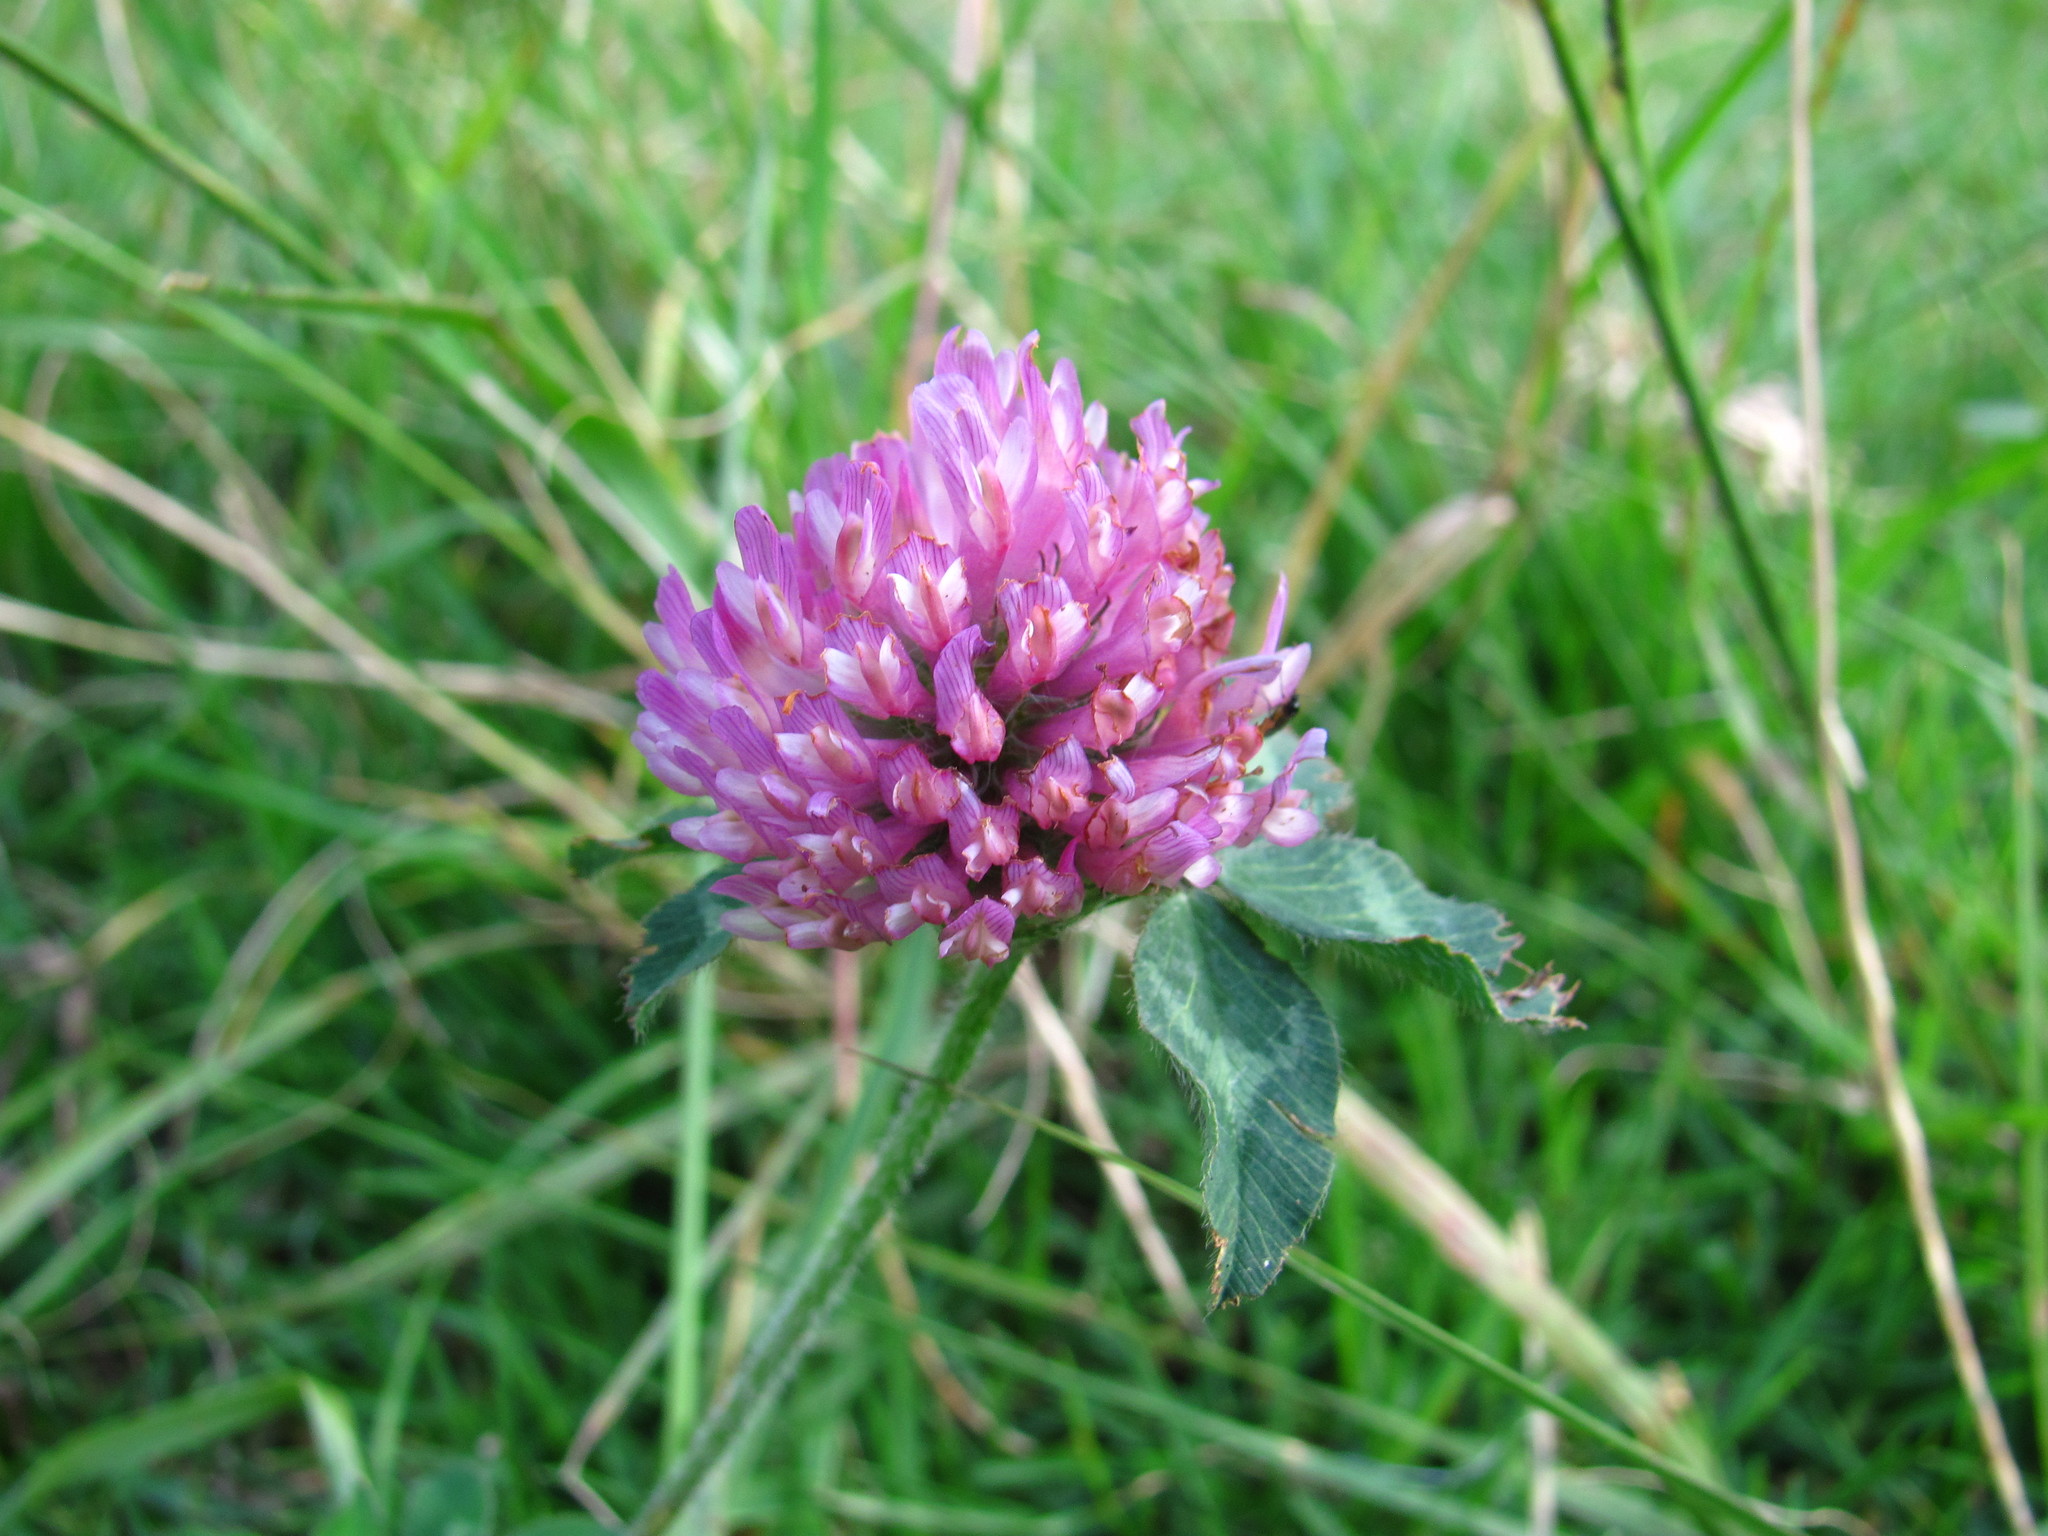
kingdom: Plantae
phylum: Tracheophyta
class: Magnoliopsida
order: Fabales
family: Fabaceae
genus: Trifolium
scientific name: Trifolium pratense
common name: Red clover
